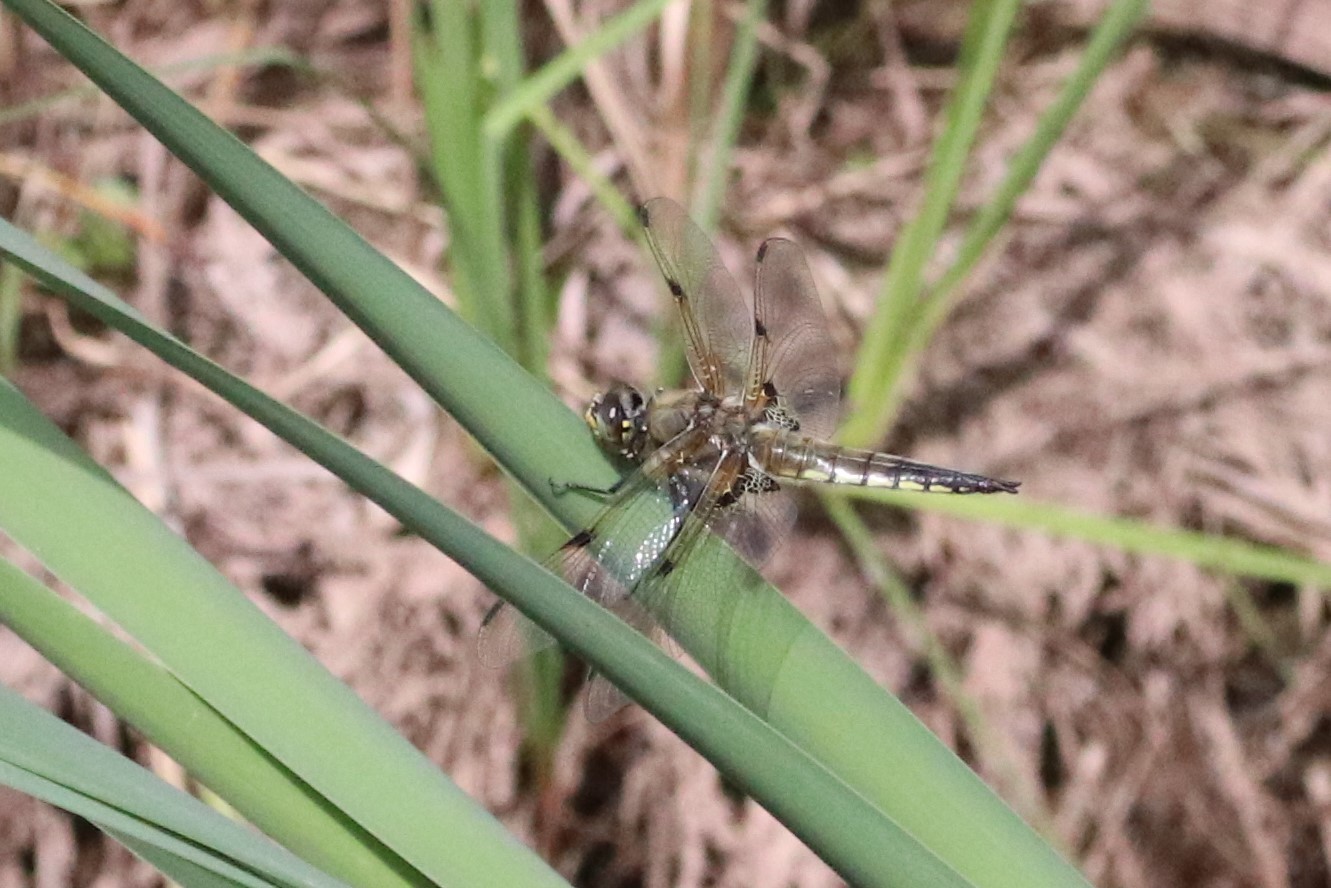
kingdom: Animalia
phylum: Arthropoda
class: Insecta
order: Odonata
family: Libellulidae
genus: Libellula
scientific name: Libellula quadrimaculata
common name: Four-spotted chaser
